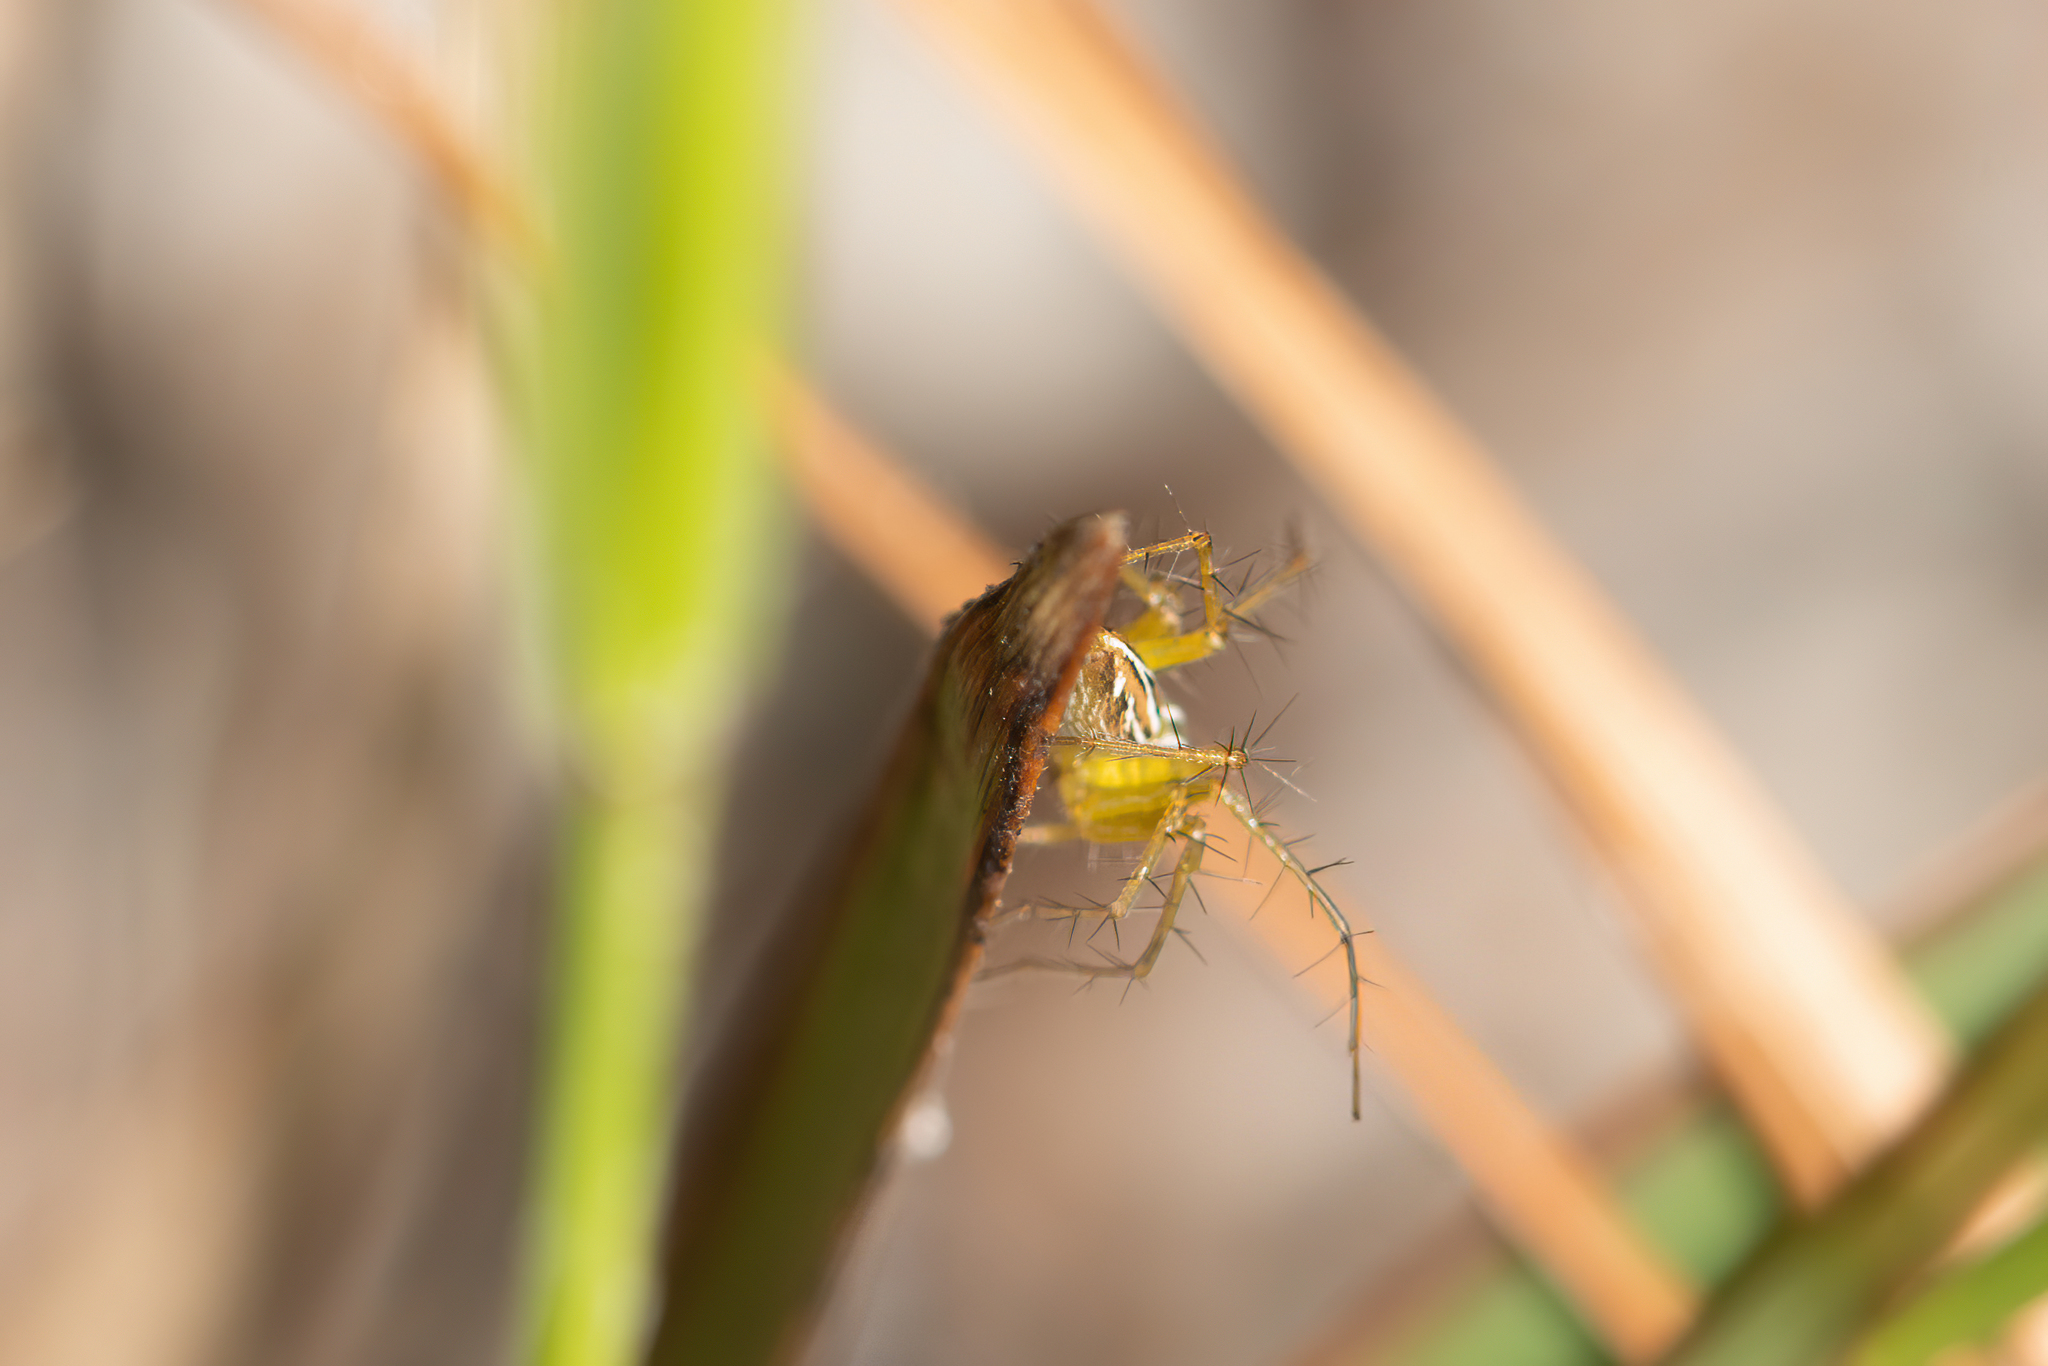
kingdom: Animalia
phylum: Arthropoda
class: Arachnida
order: Araneae
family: Oxyopidae
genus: Oxyopes
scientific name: Oxyopes salticus
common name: Lynx spiders
